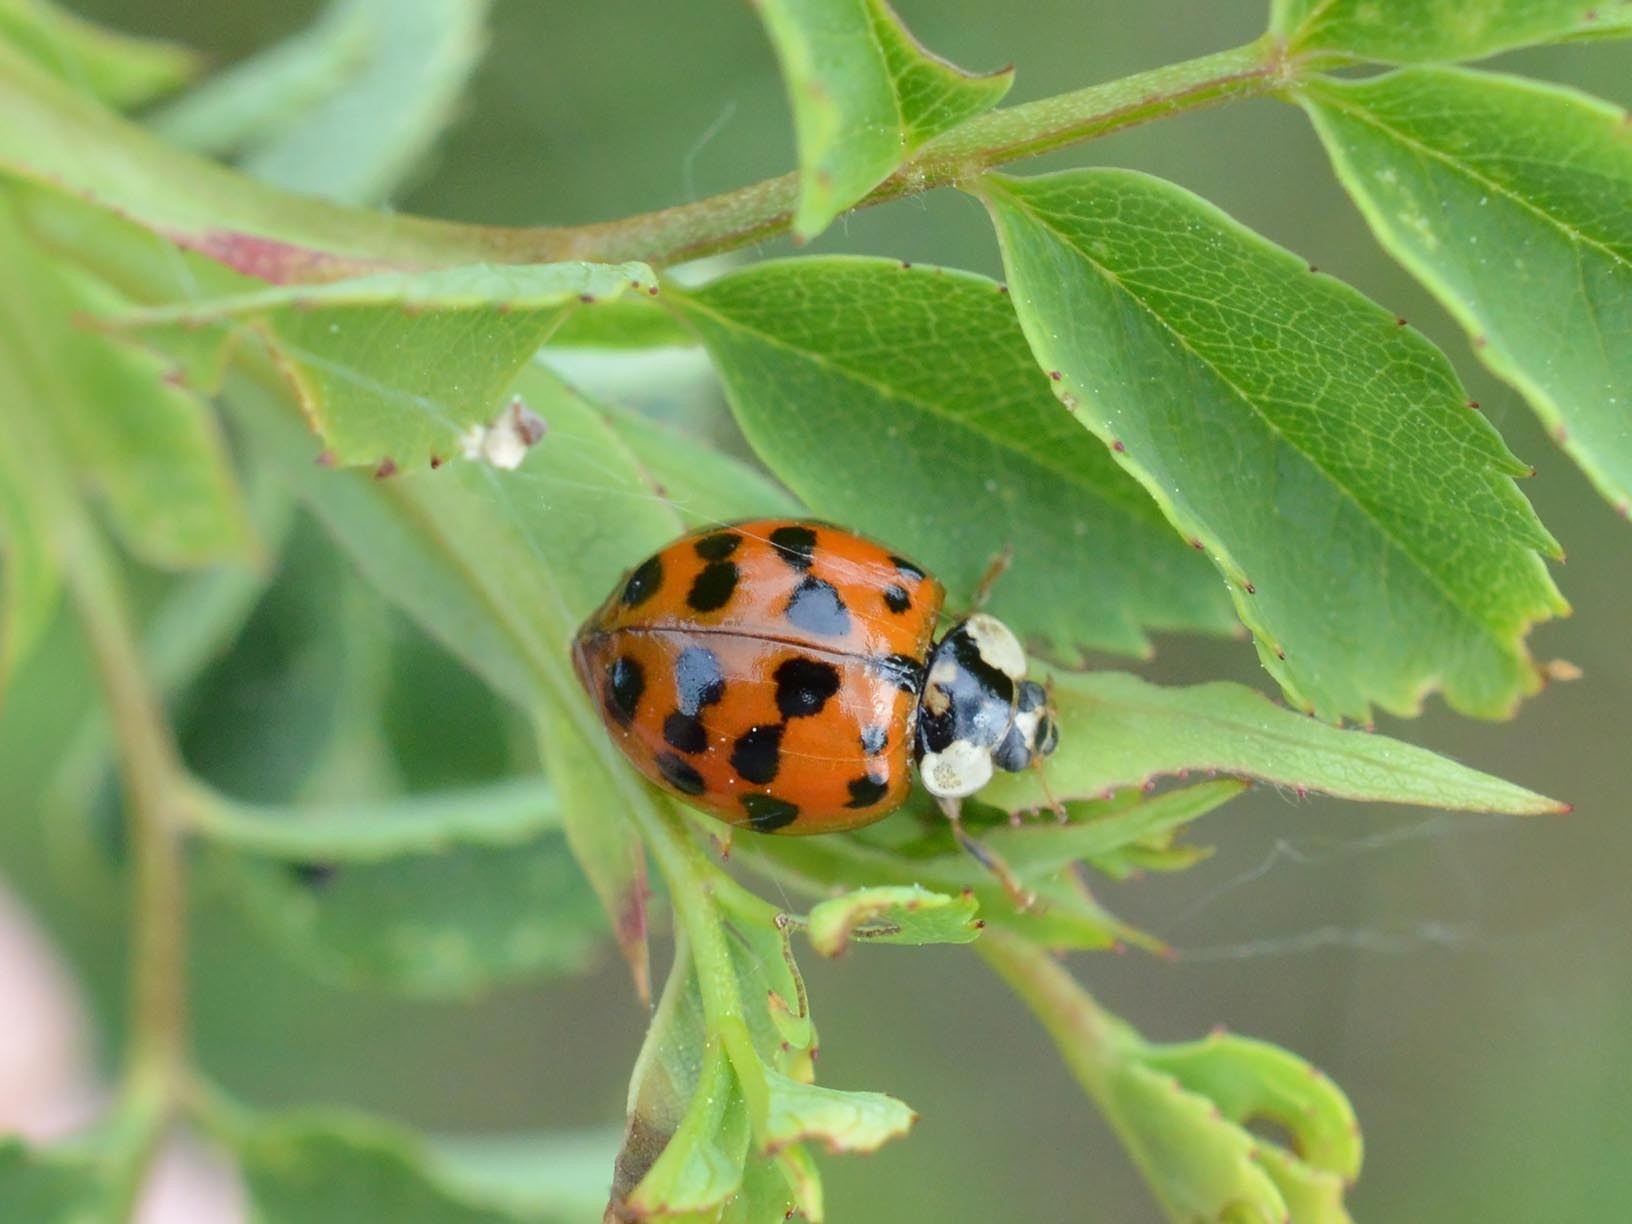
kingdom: Animalia
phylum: Arthropoda
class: Insecta
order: Coleoptera
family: Coccinellidae
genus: Harmonia
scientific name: Harmonia axyridis
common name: Harlequin ladybird
